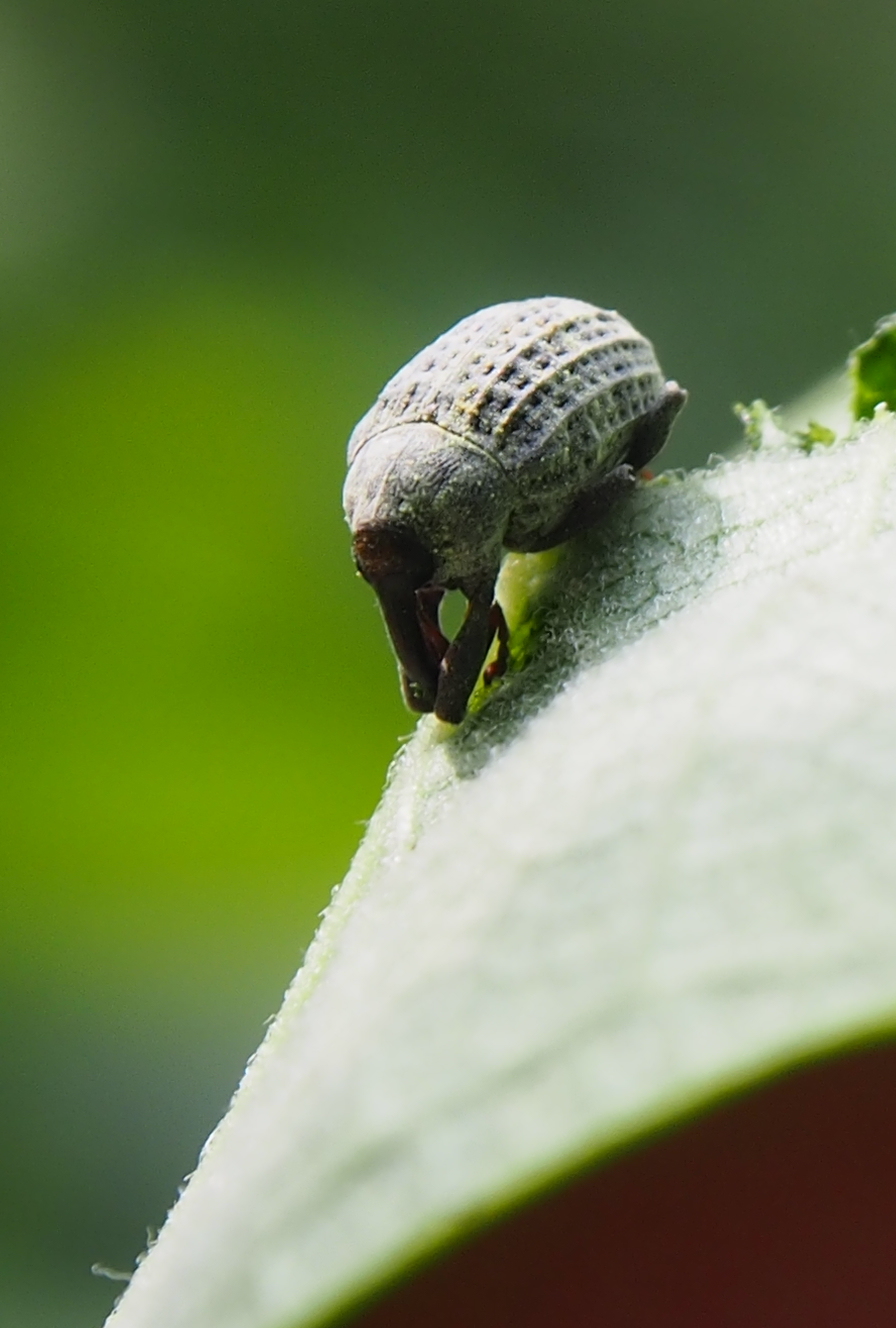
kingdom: Animalia
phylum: Arthropoda
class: Insecta
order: Coleoptera
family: Curculionidae
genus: Rhyssomatus
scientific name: Rhyssomatus lineaticollis
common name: Milkweed stem weevil
